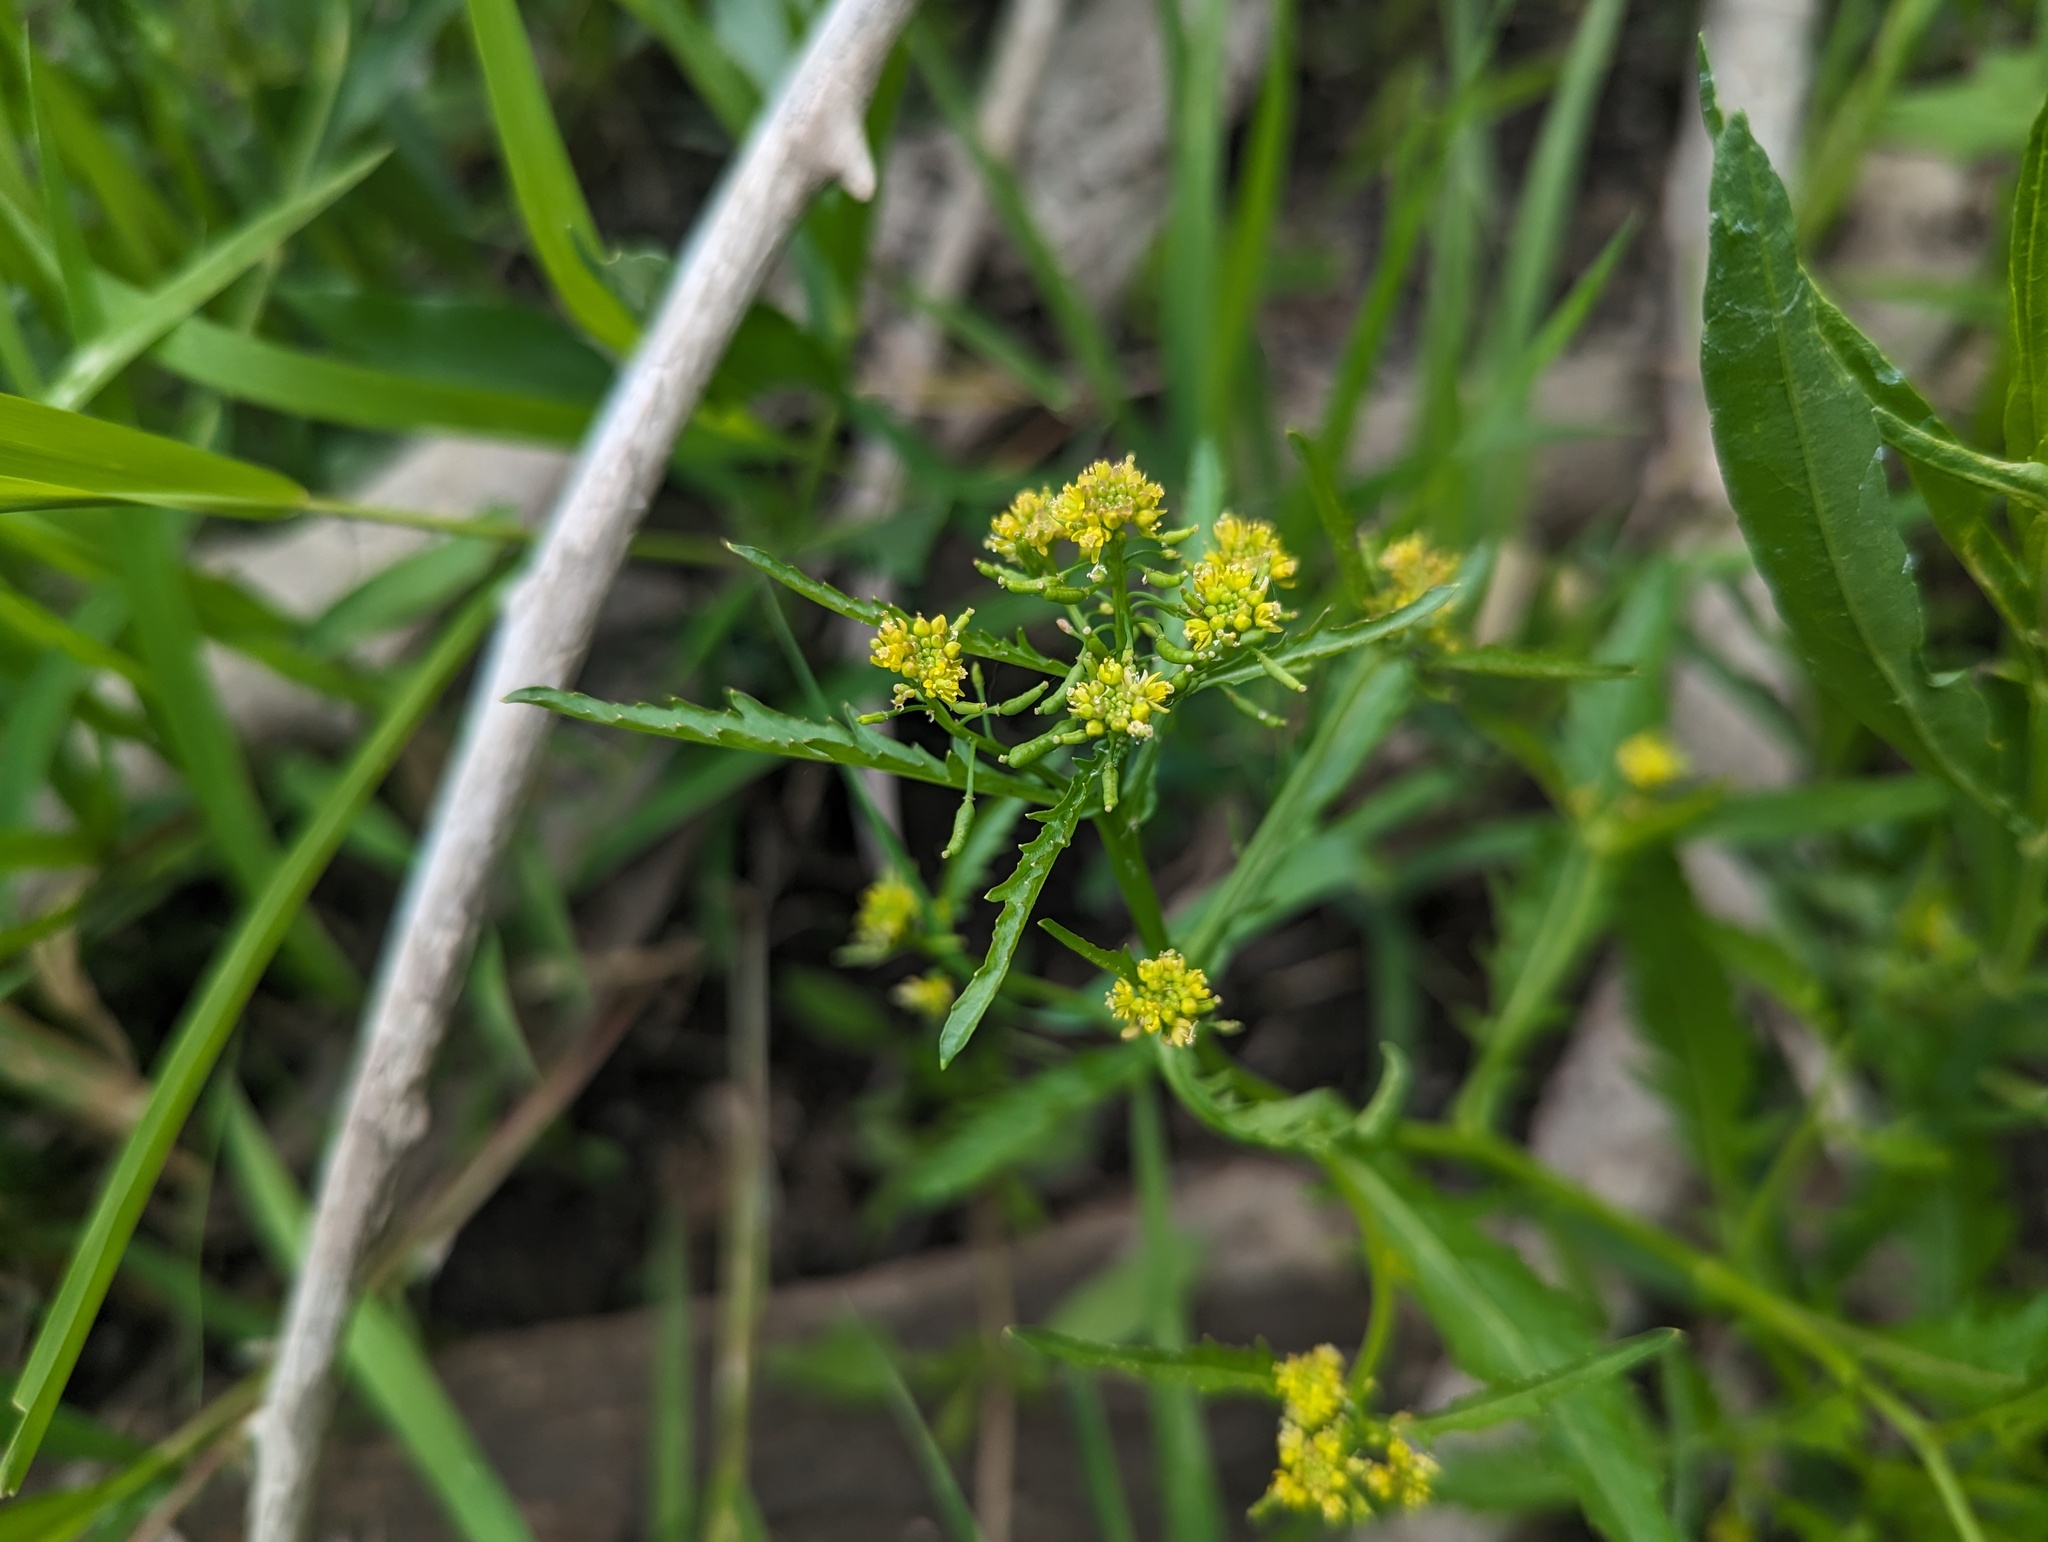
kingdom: Plantae
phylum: Tracheophyta
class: Magnoliopsida
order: Brassicales
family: Brassicaceae
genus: Rorippa
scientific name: Rorippa palustris
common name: Marsh yellow-cress
